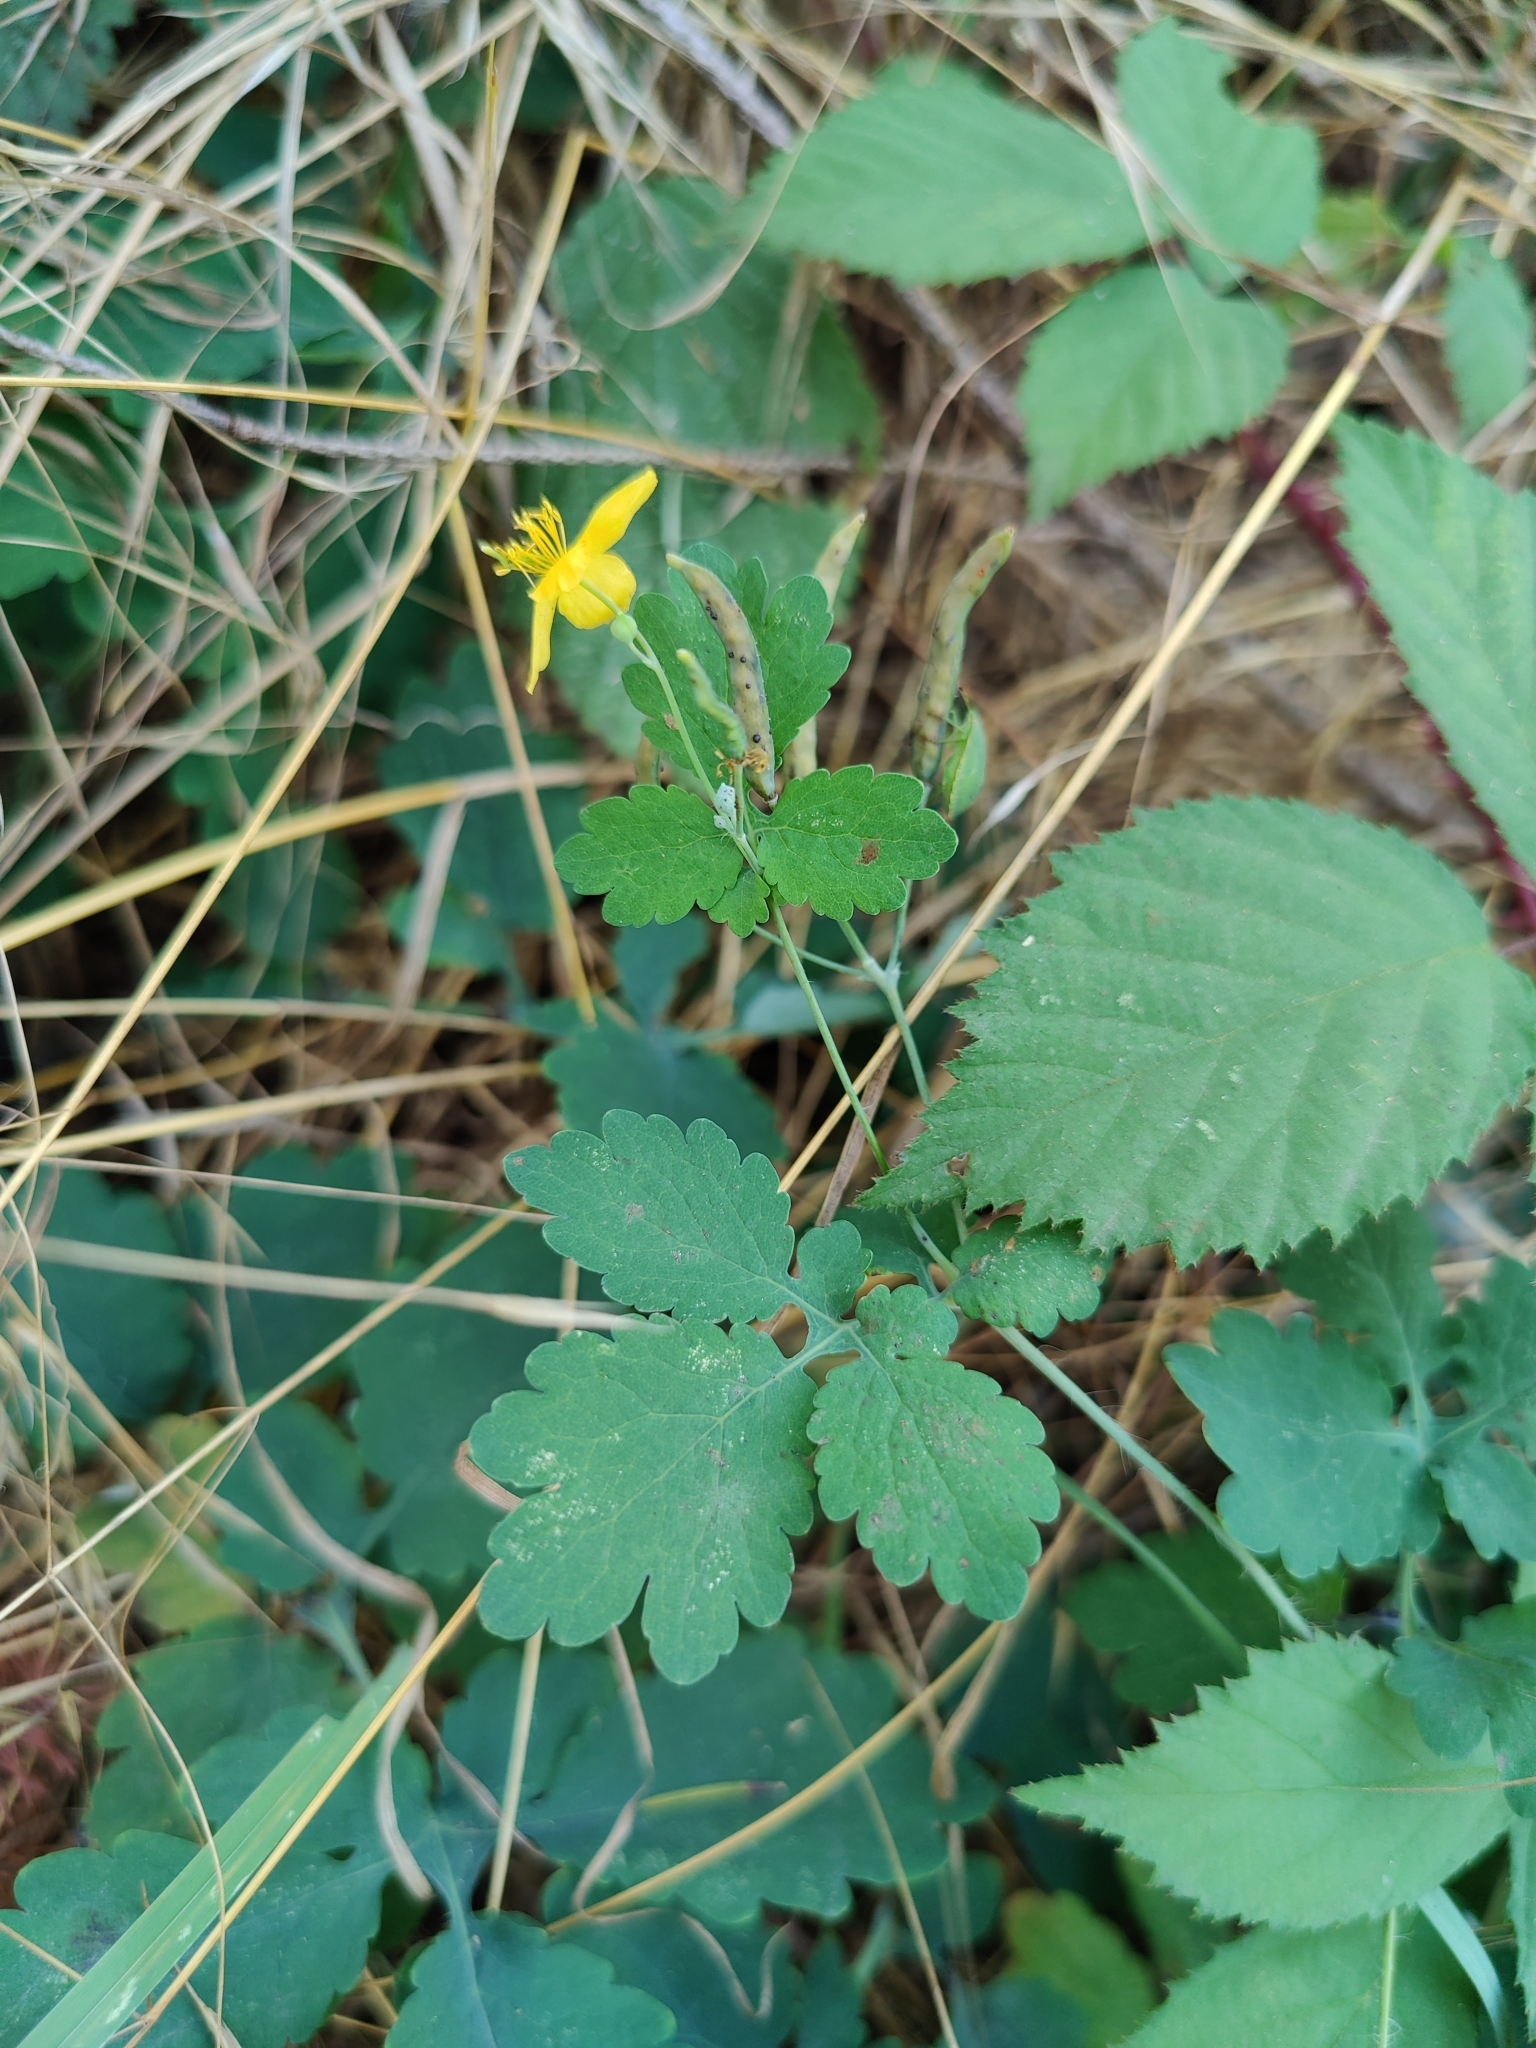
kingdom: Plantae
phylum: Tracheophyta
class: Magnoliopsida
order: Ranunculales
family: Papaveraceae
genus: Chelidonium
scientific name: Chelidonium majus
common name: Greater celandine
